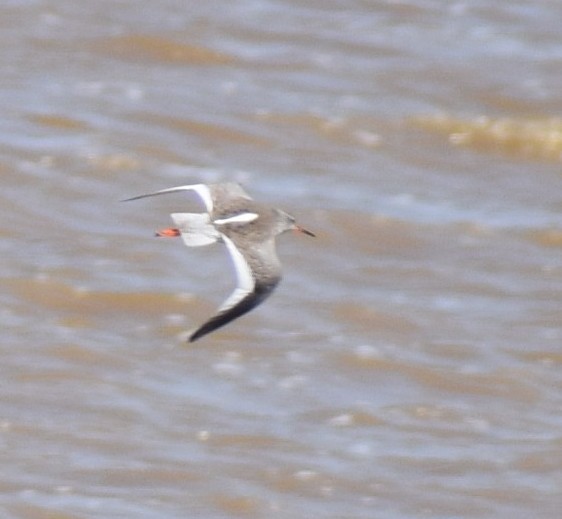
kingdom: Animalia
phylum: Chordata
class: Aves
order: Charadriiformes
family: Scolopacidae
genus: Tringa
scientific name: Tringa totanus
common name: Common redshank
